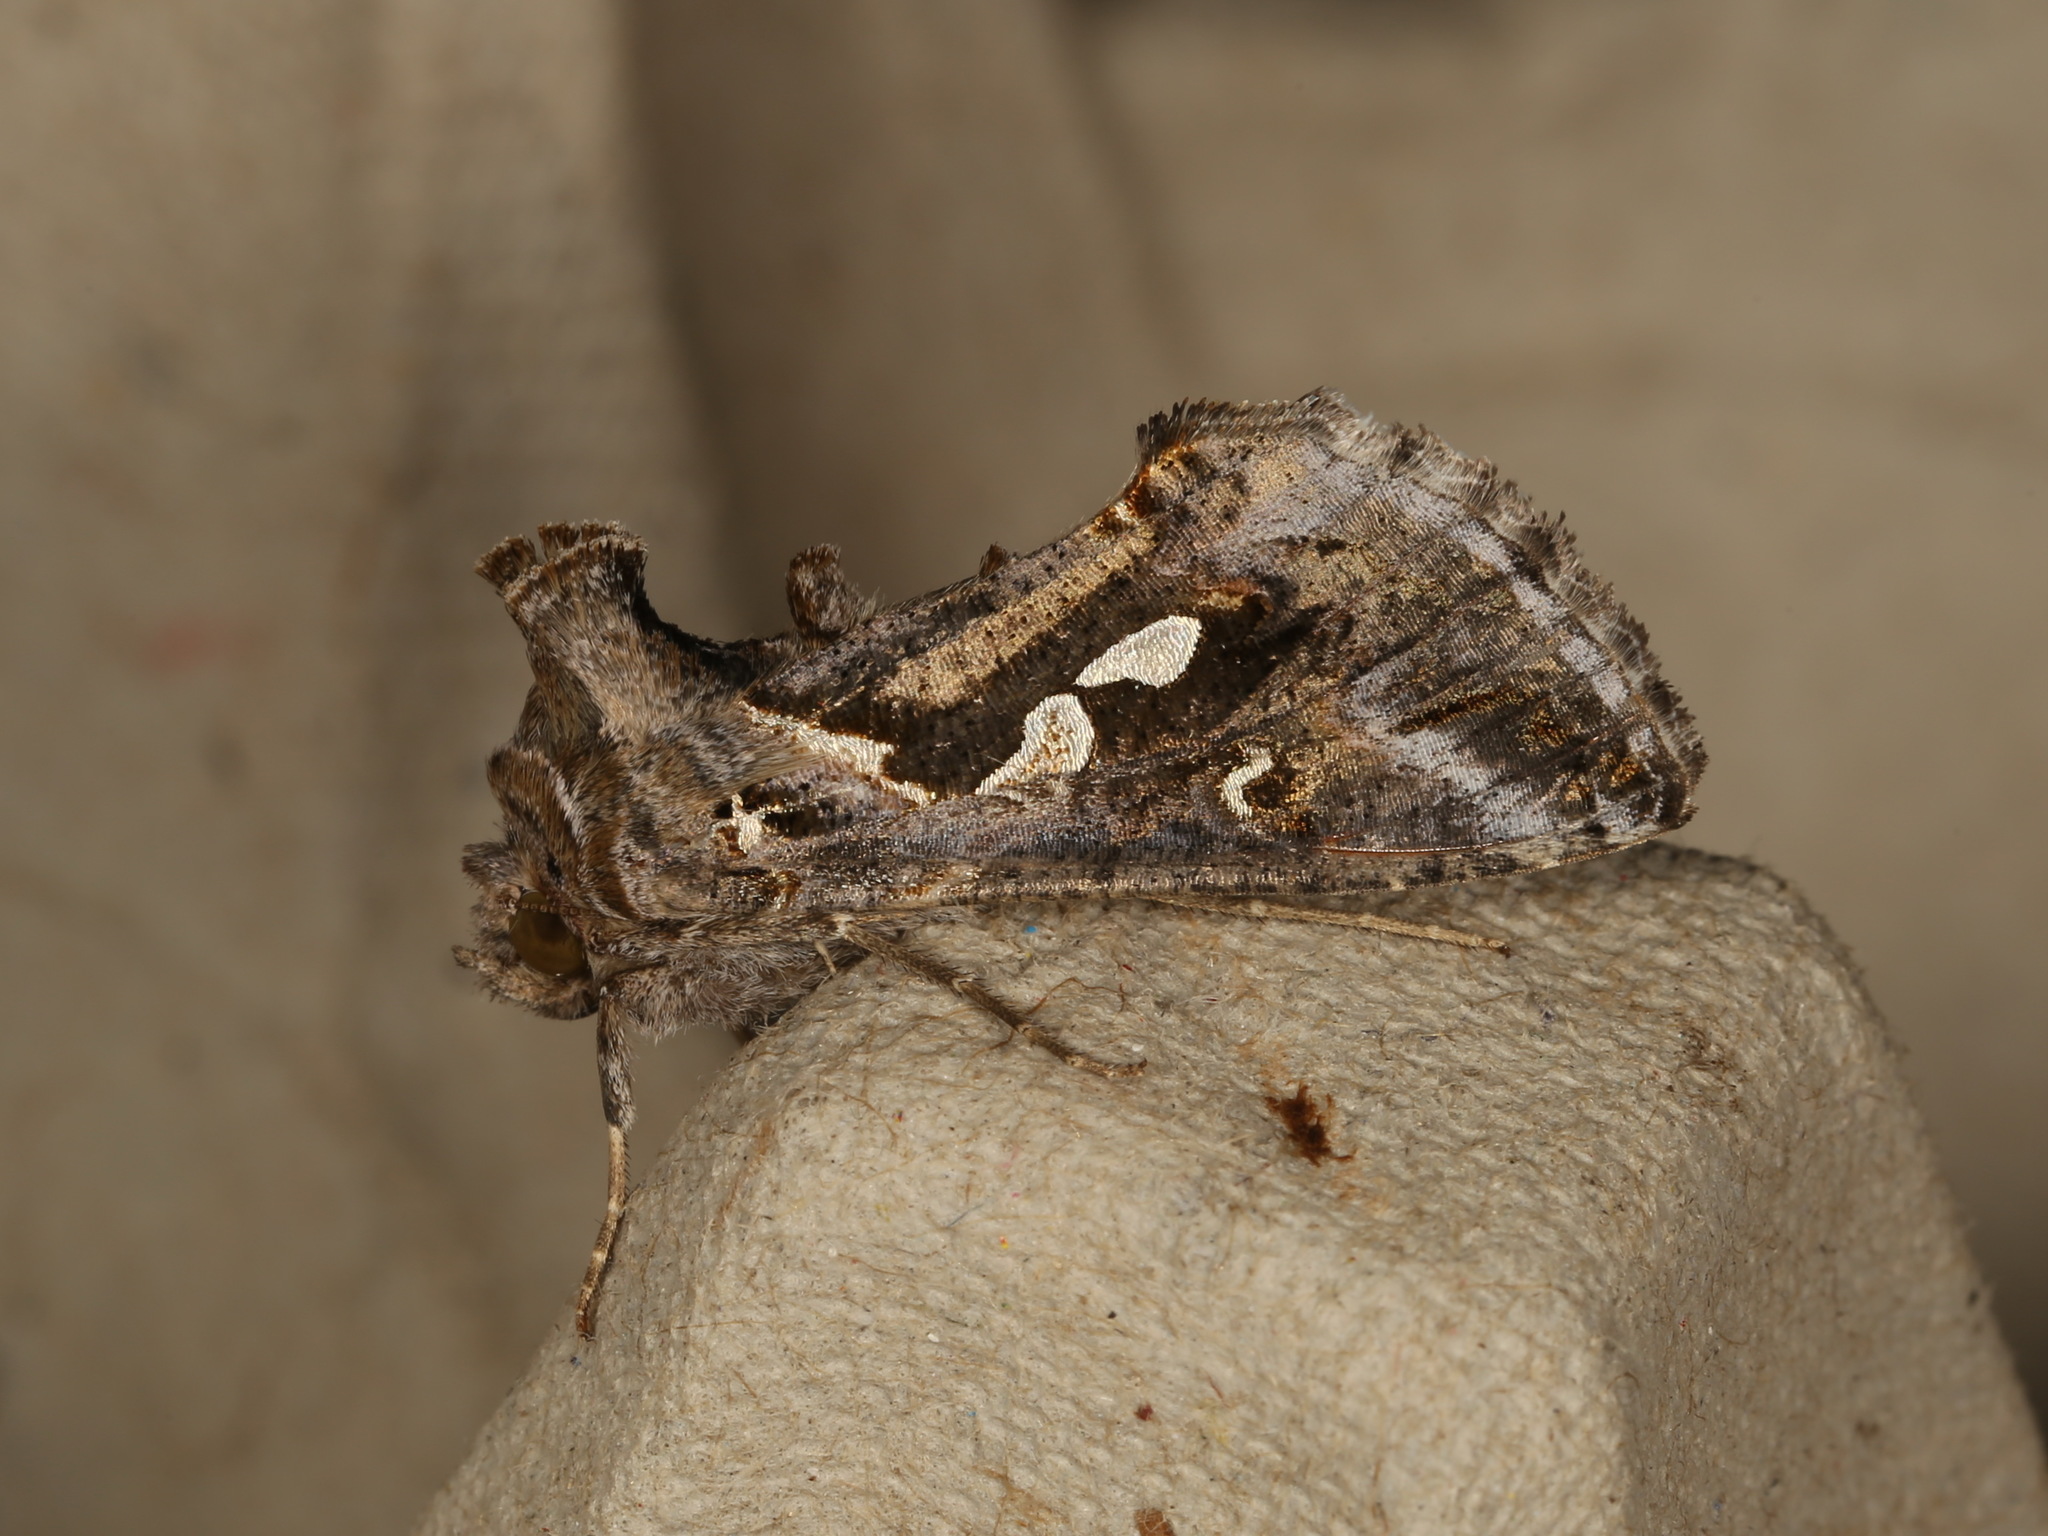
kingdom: Animalia
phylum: Arthropoda
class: Insecta
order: Lepidoptera
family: Noctuidae
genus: Chrysodeixis
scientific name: Chrysodeixis argentifera
